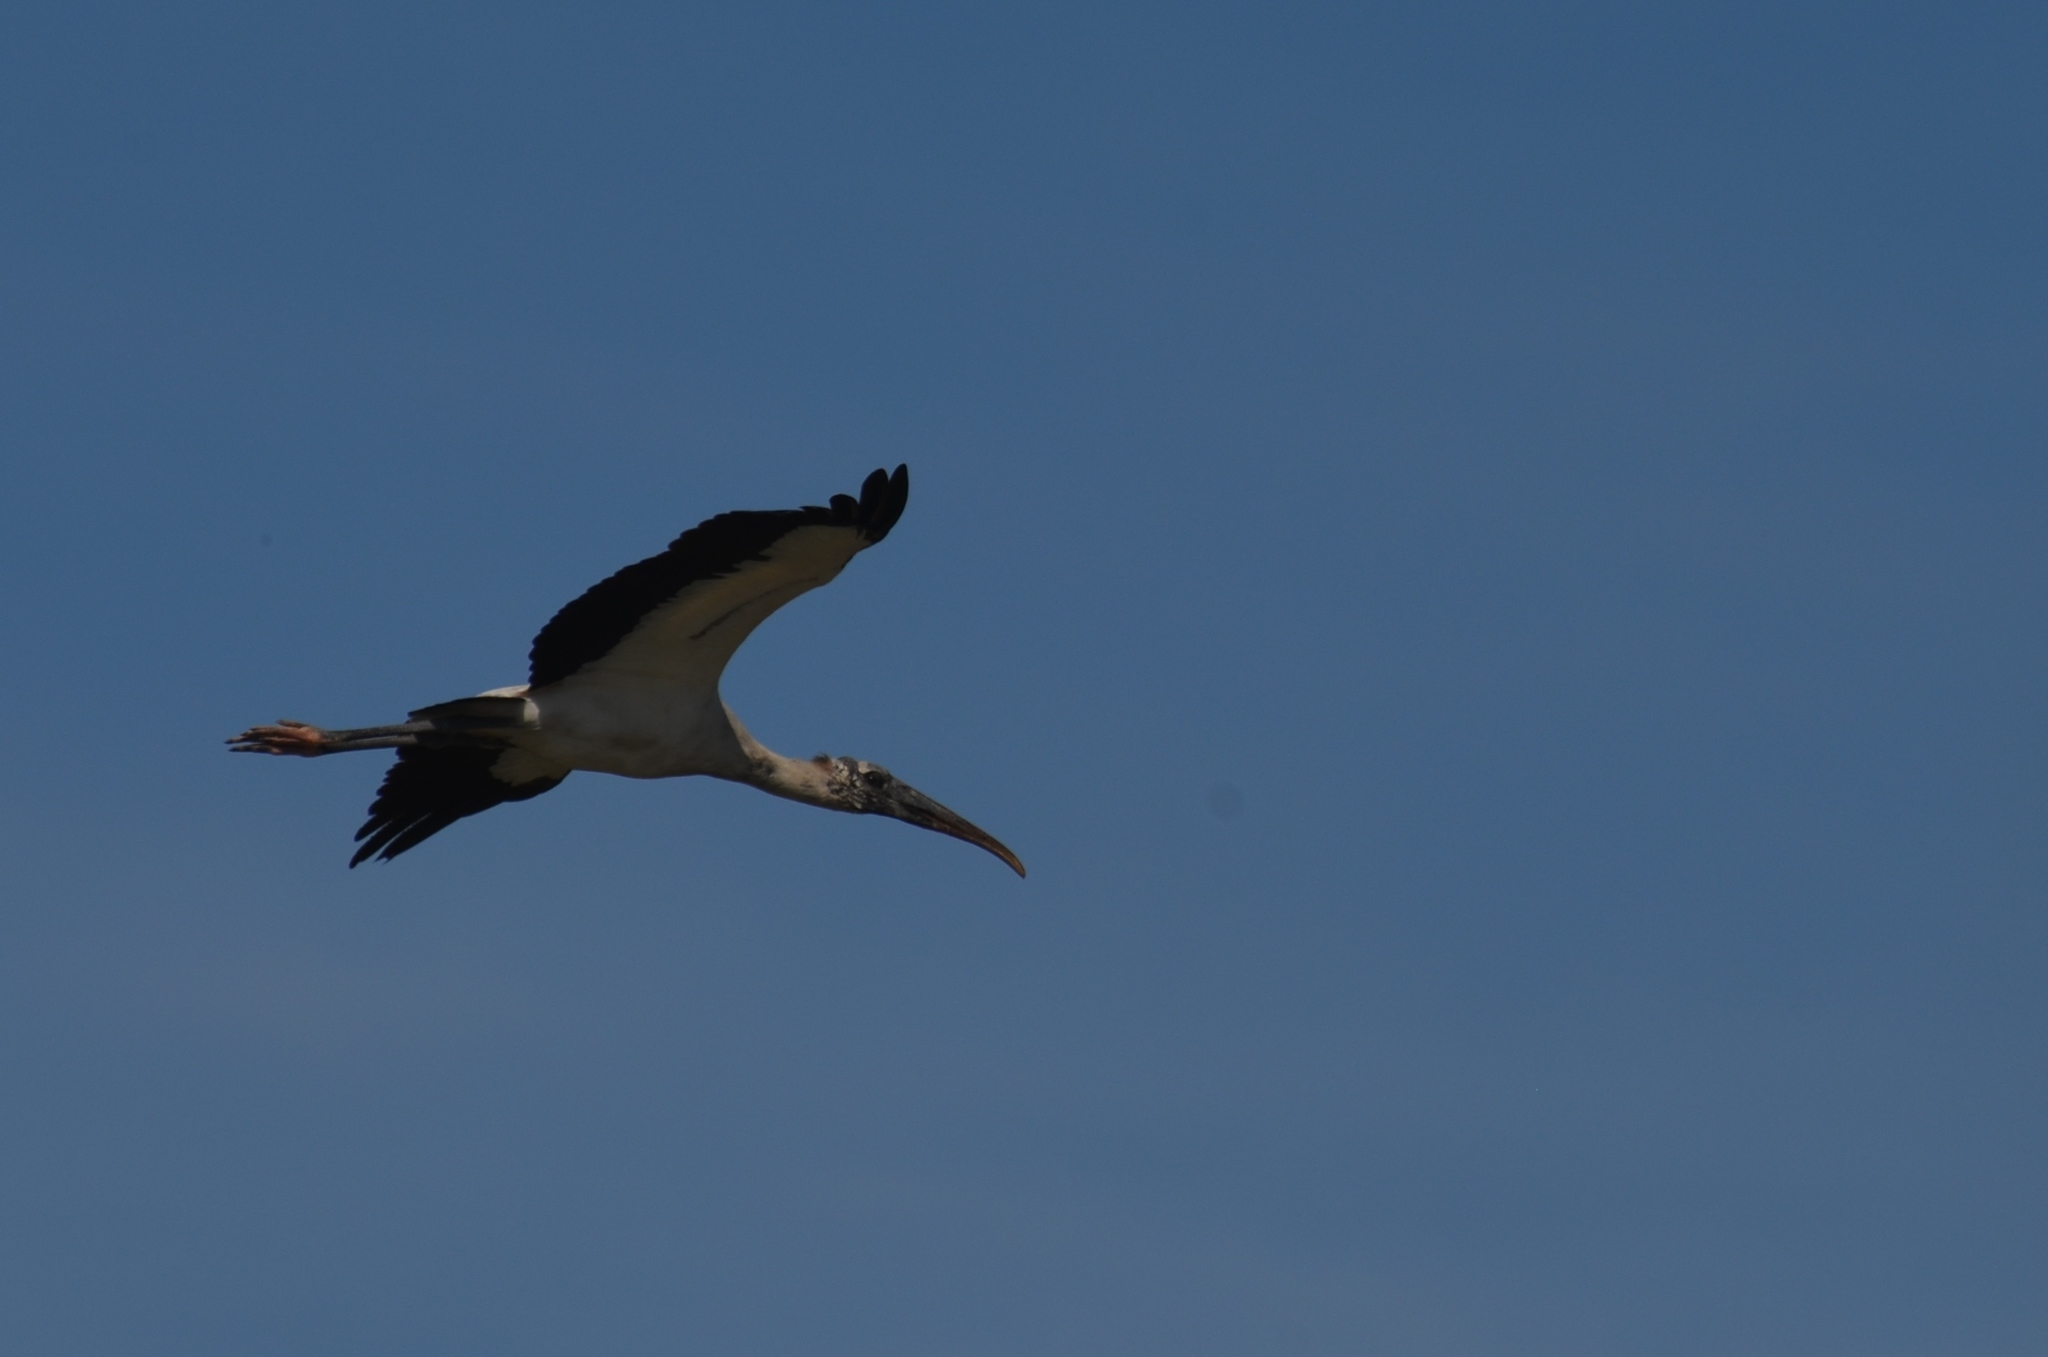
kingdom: Animalia
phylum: Chordata
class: Aves
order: Ciconiiformes
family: Ciconiidae
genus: Mycteria
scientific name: Mycteria americana
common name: Wood stork
